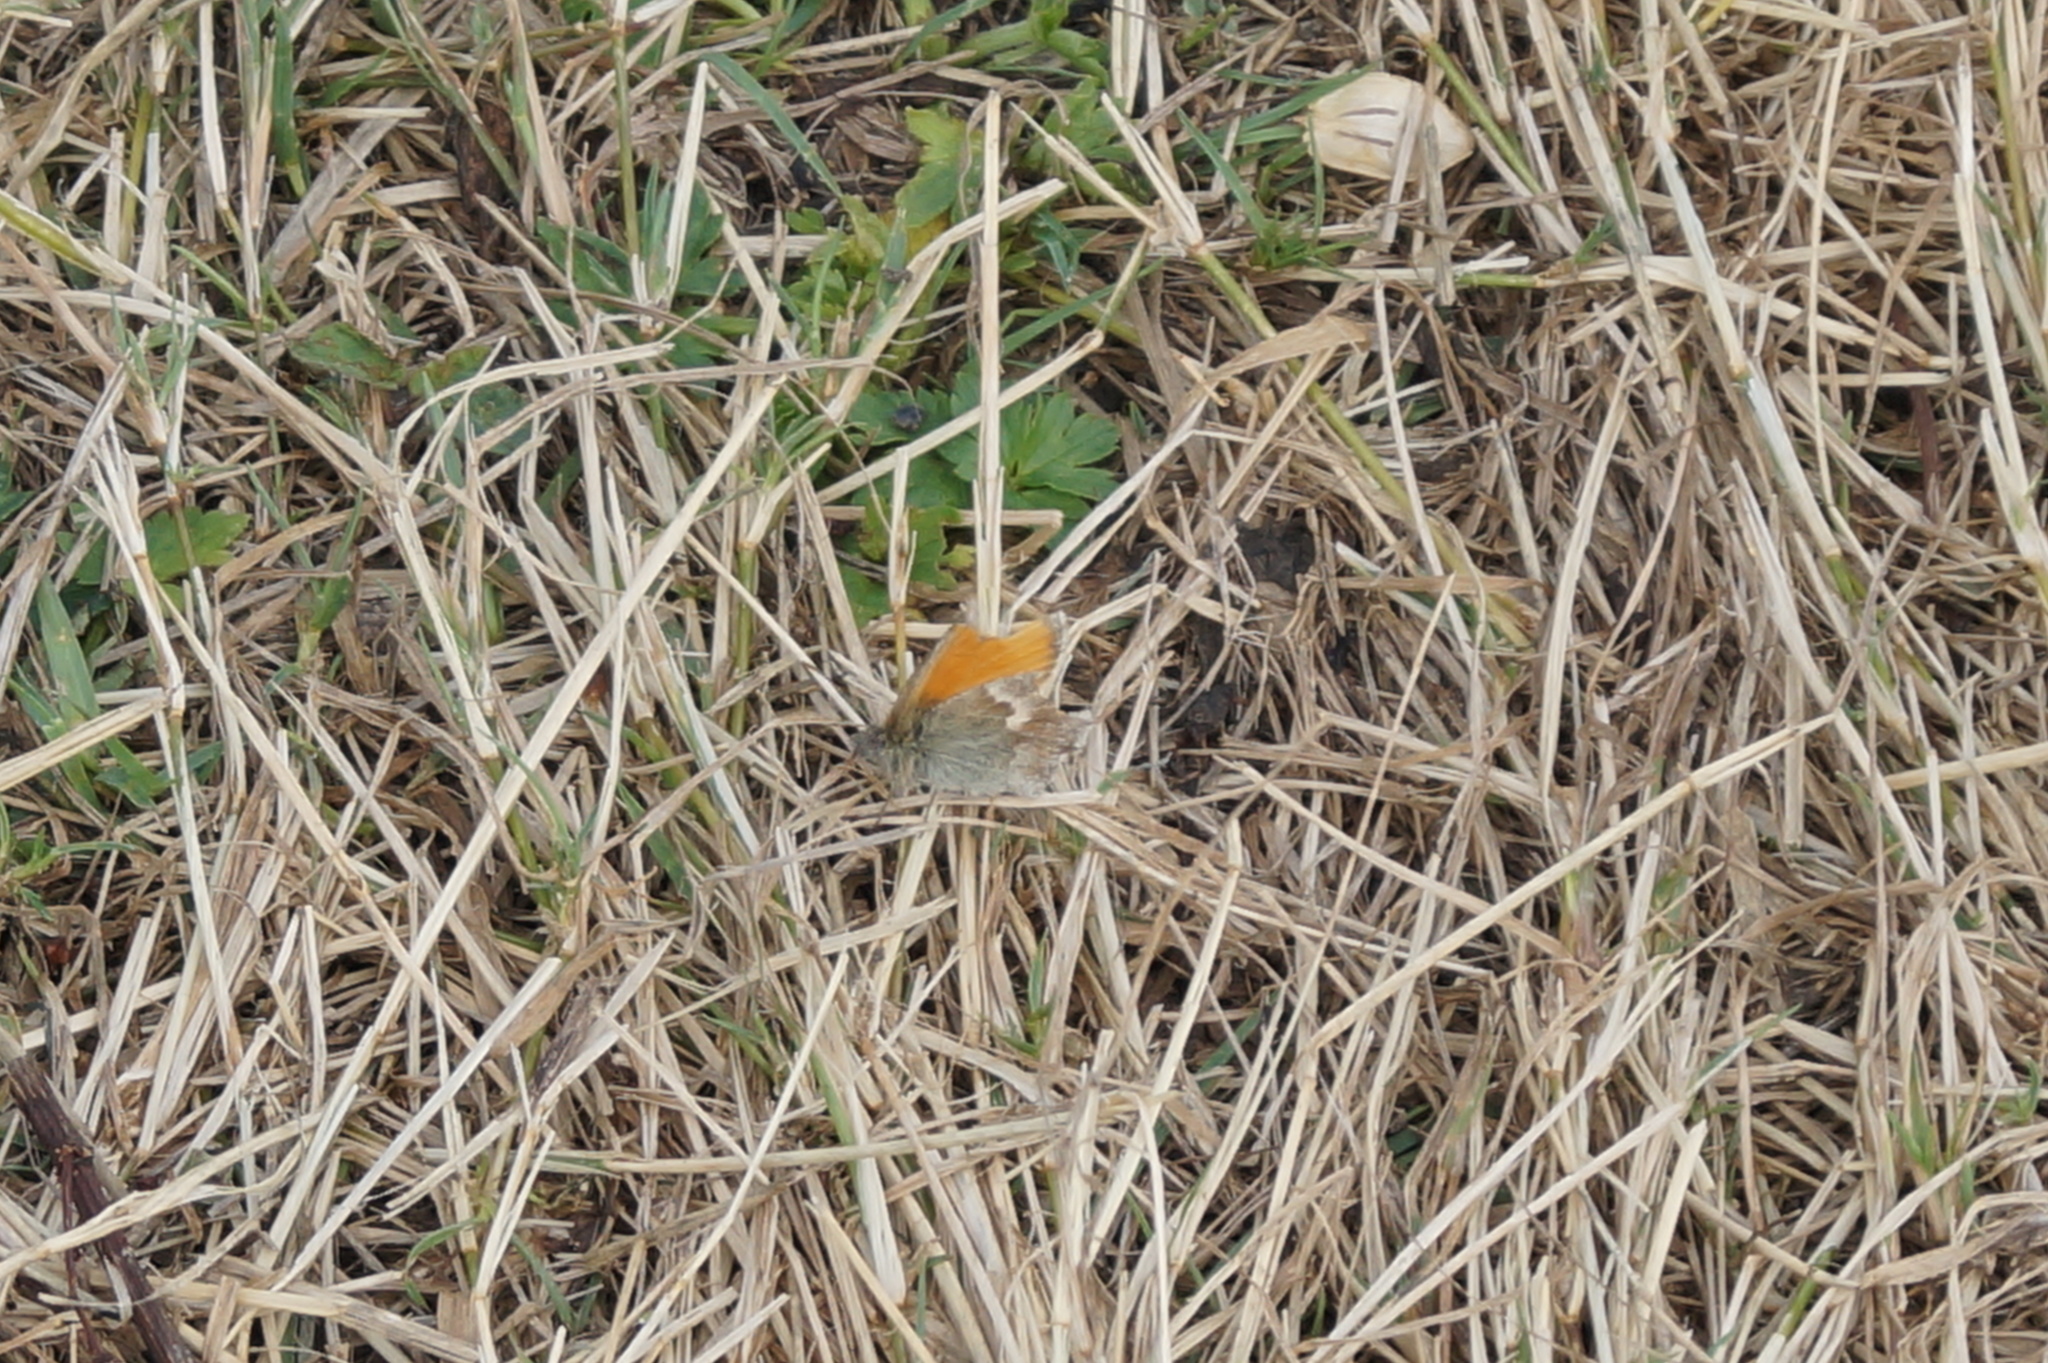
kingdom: Animalia
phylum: Arthropoda
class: Insecta
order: Lepidoptera
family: Nymphalidae
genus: Coenonympha
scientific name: Coenonympha pamphilus
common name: Small heath
